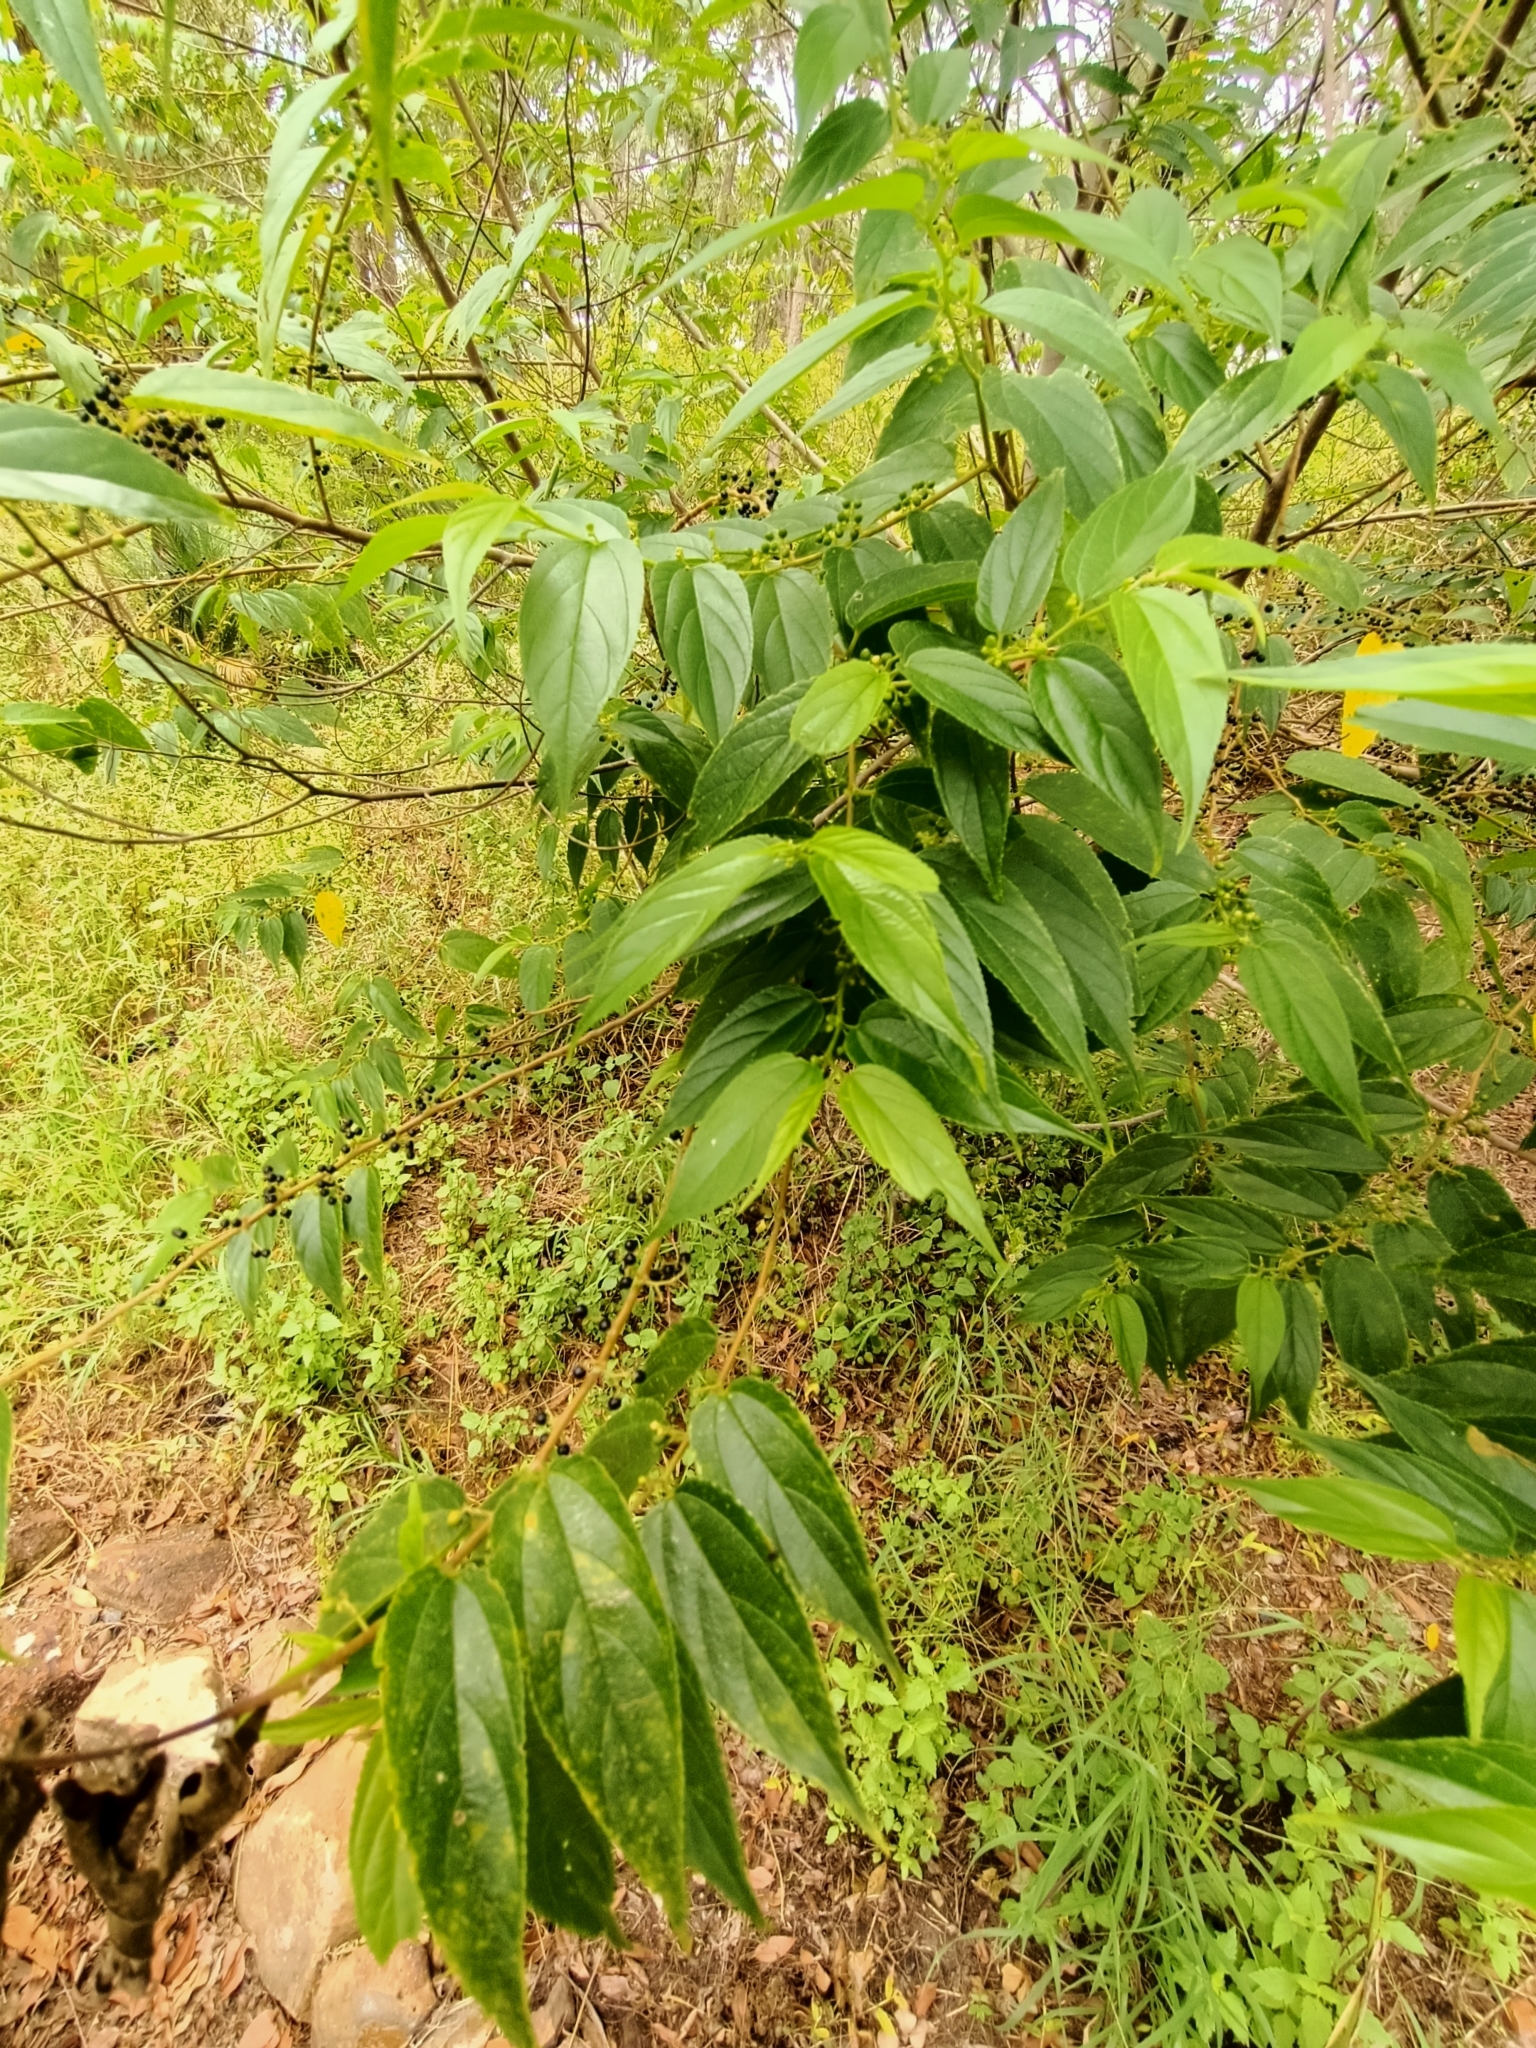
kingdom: Plantae
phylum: Tracheophyta
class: Magnoliopsida
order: Rosales
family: Cannabaceae
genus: Trema
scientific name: Trema tomentosum
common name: Peach-leaf-poisonbush
